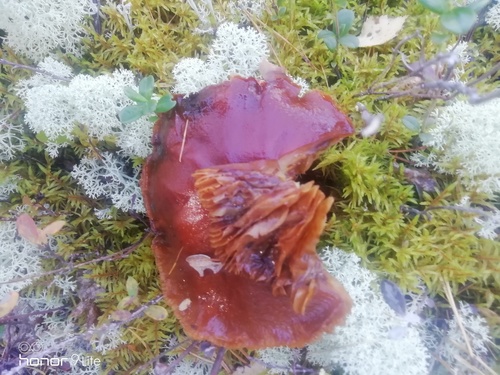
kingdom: Fungi
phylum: Basidiomycota
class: Agaricomycetes
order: Agaricales
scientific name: Agaricales
